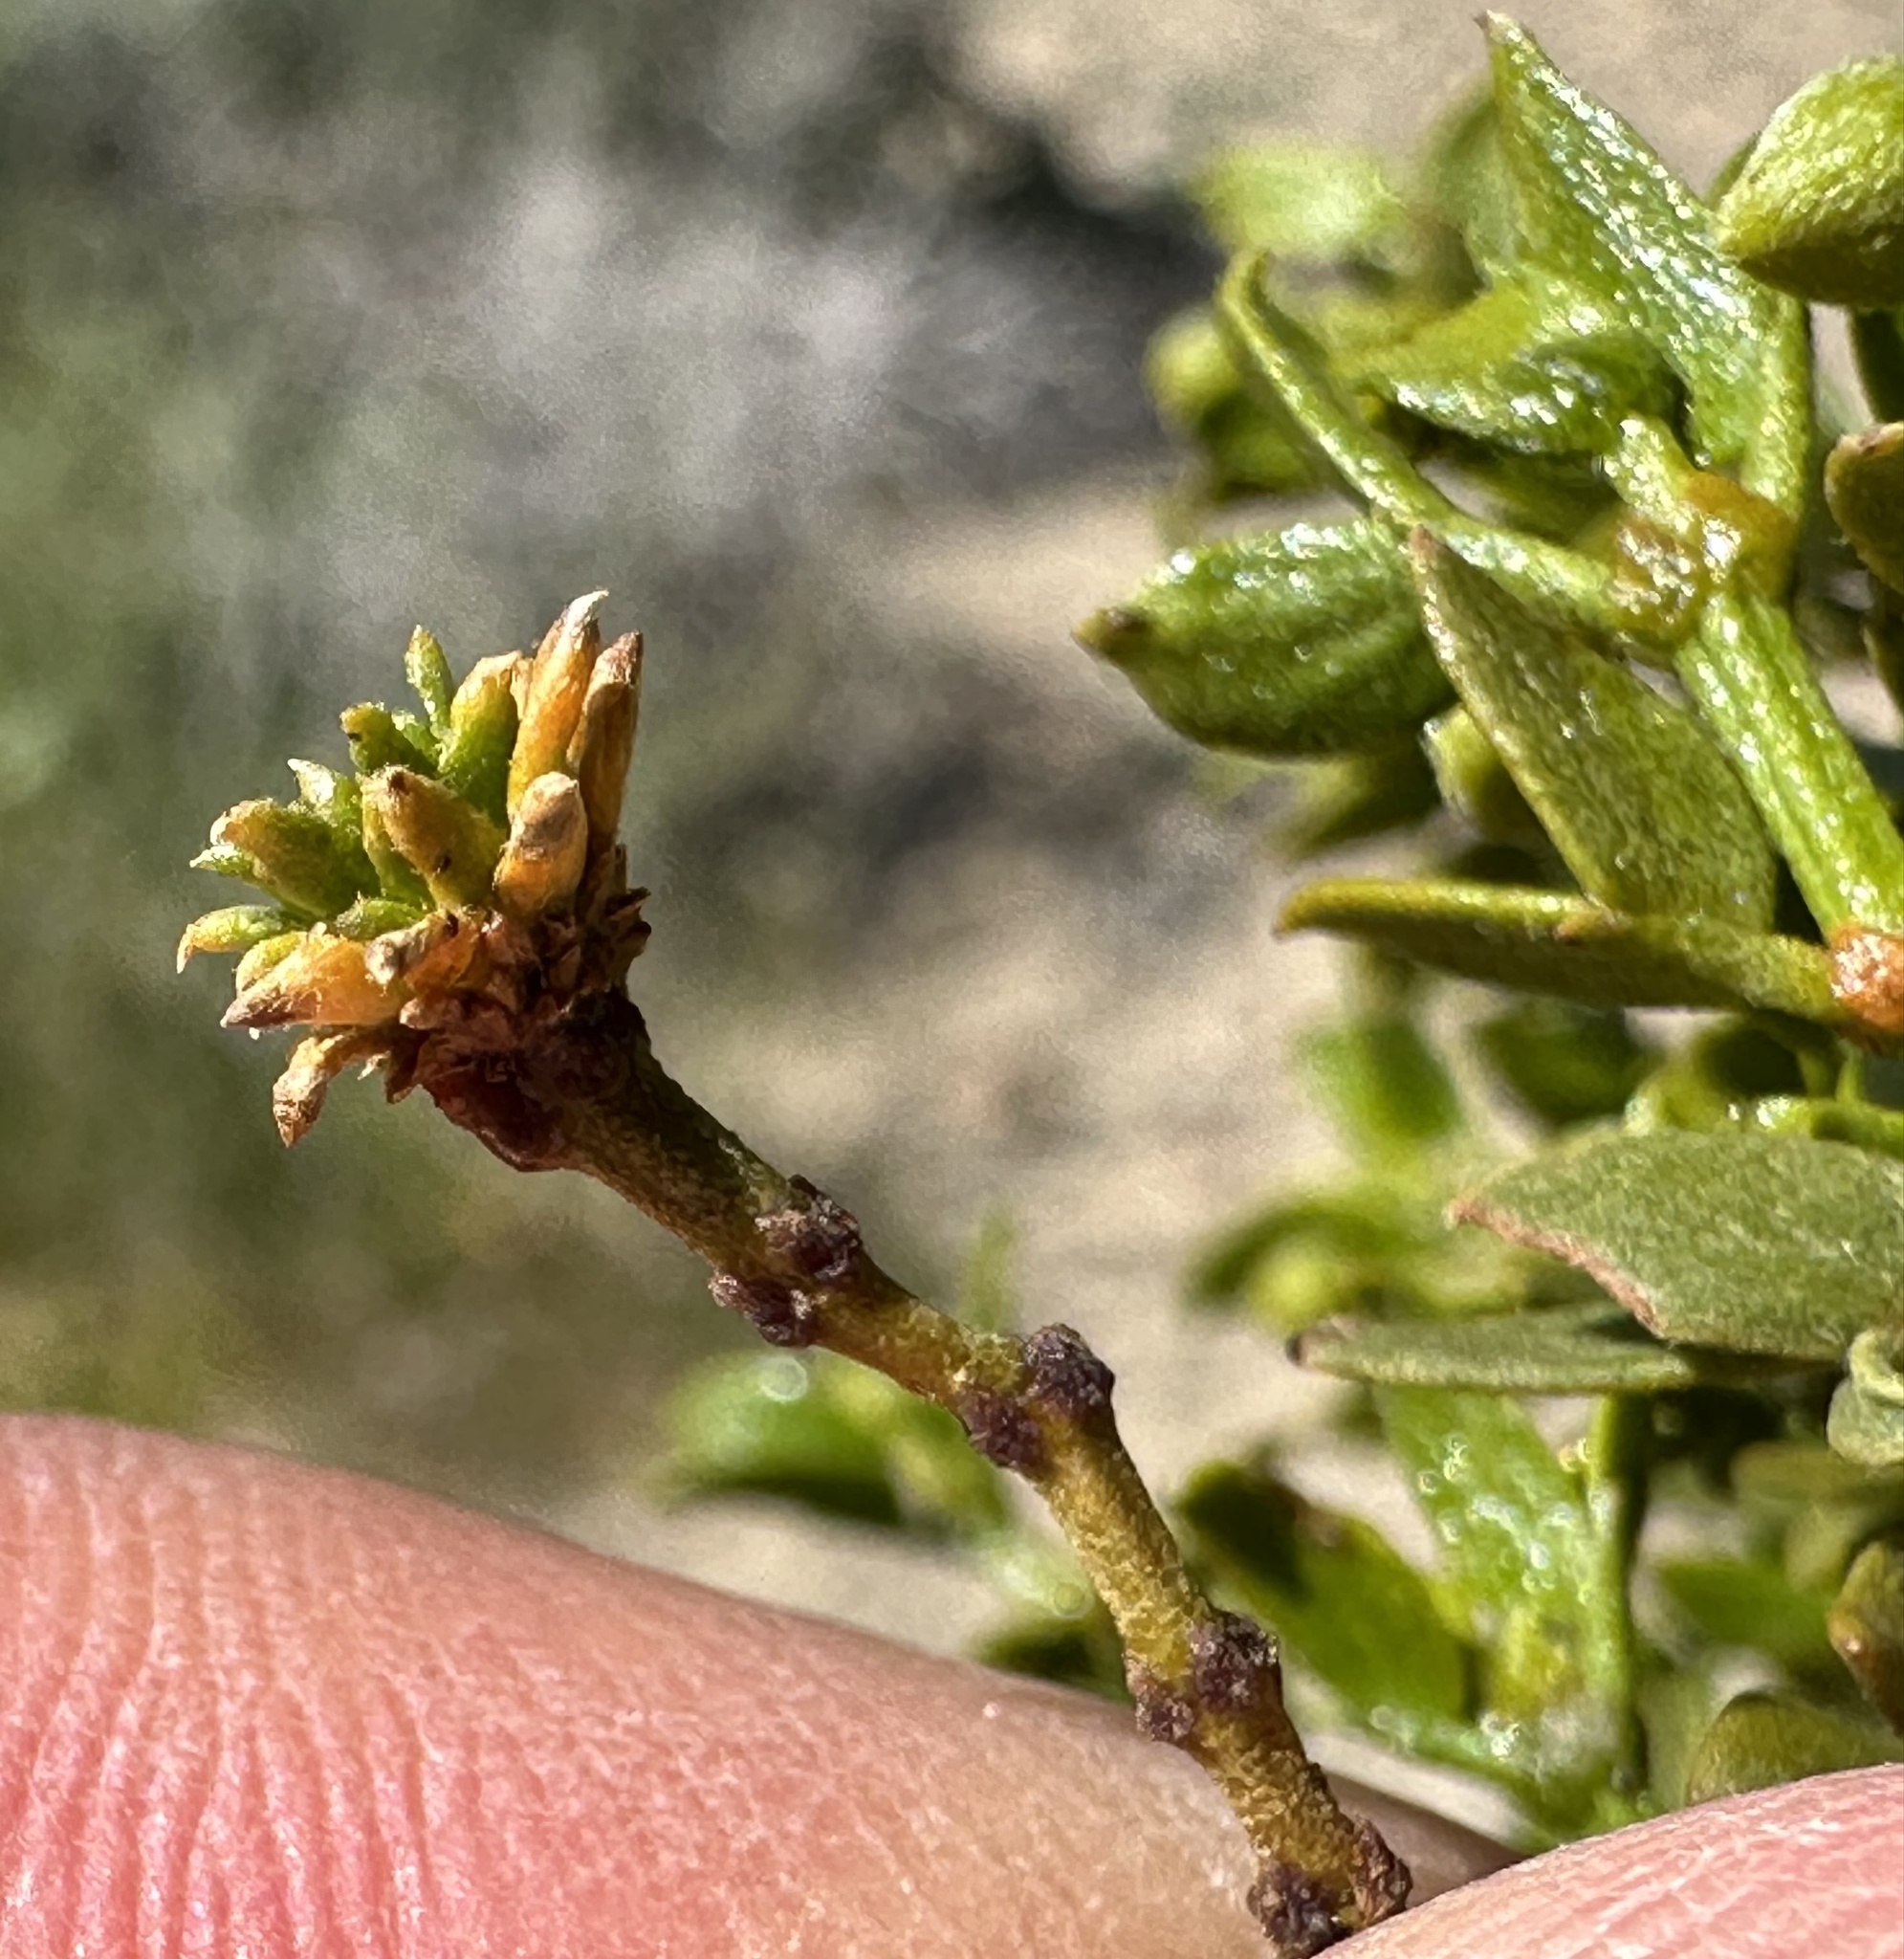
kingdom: Animalia
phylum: Arthropoda
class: Insecta
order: Diptera
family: Cecidomyiidae
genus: Asphondylia
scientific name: Asphondylia rosetta
